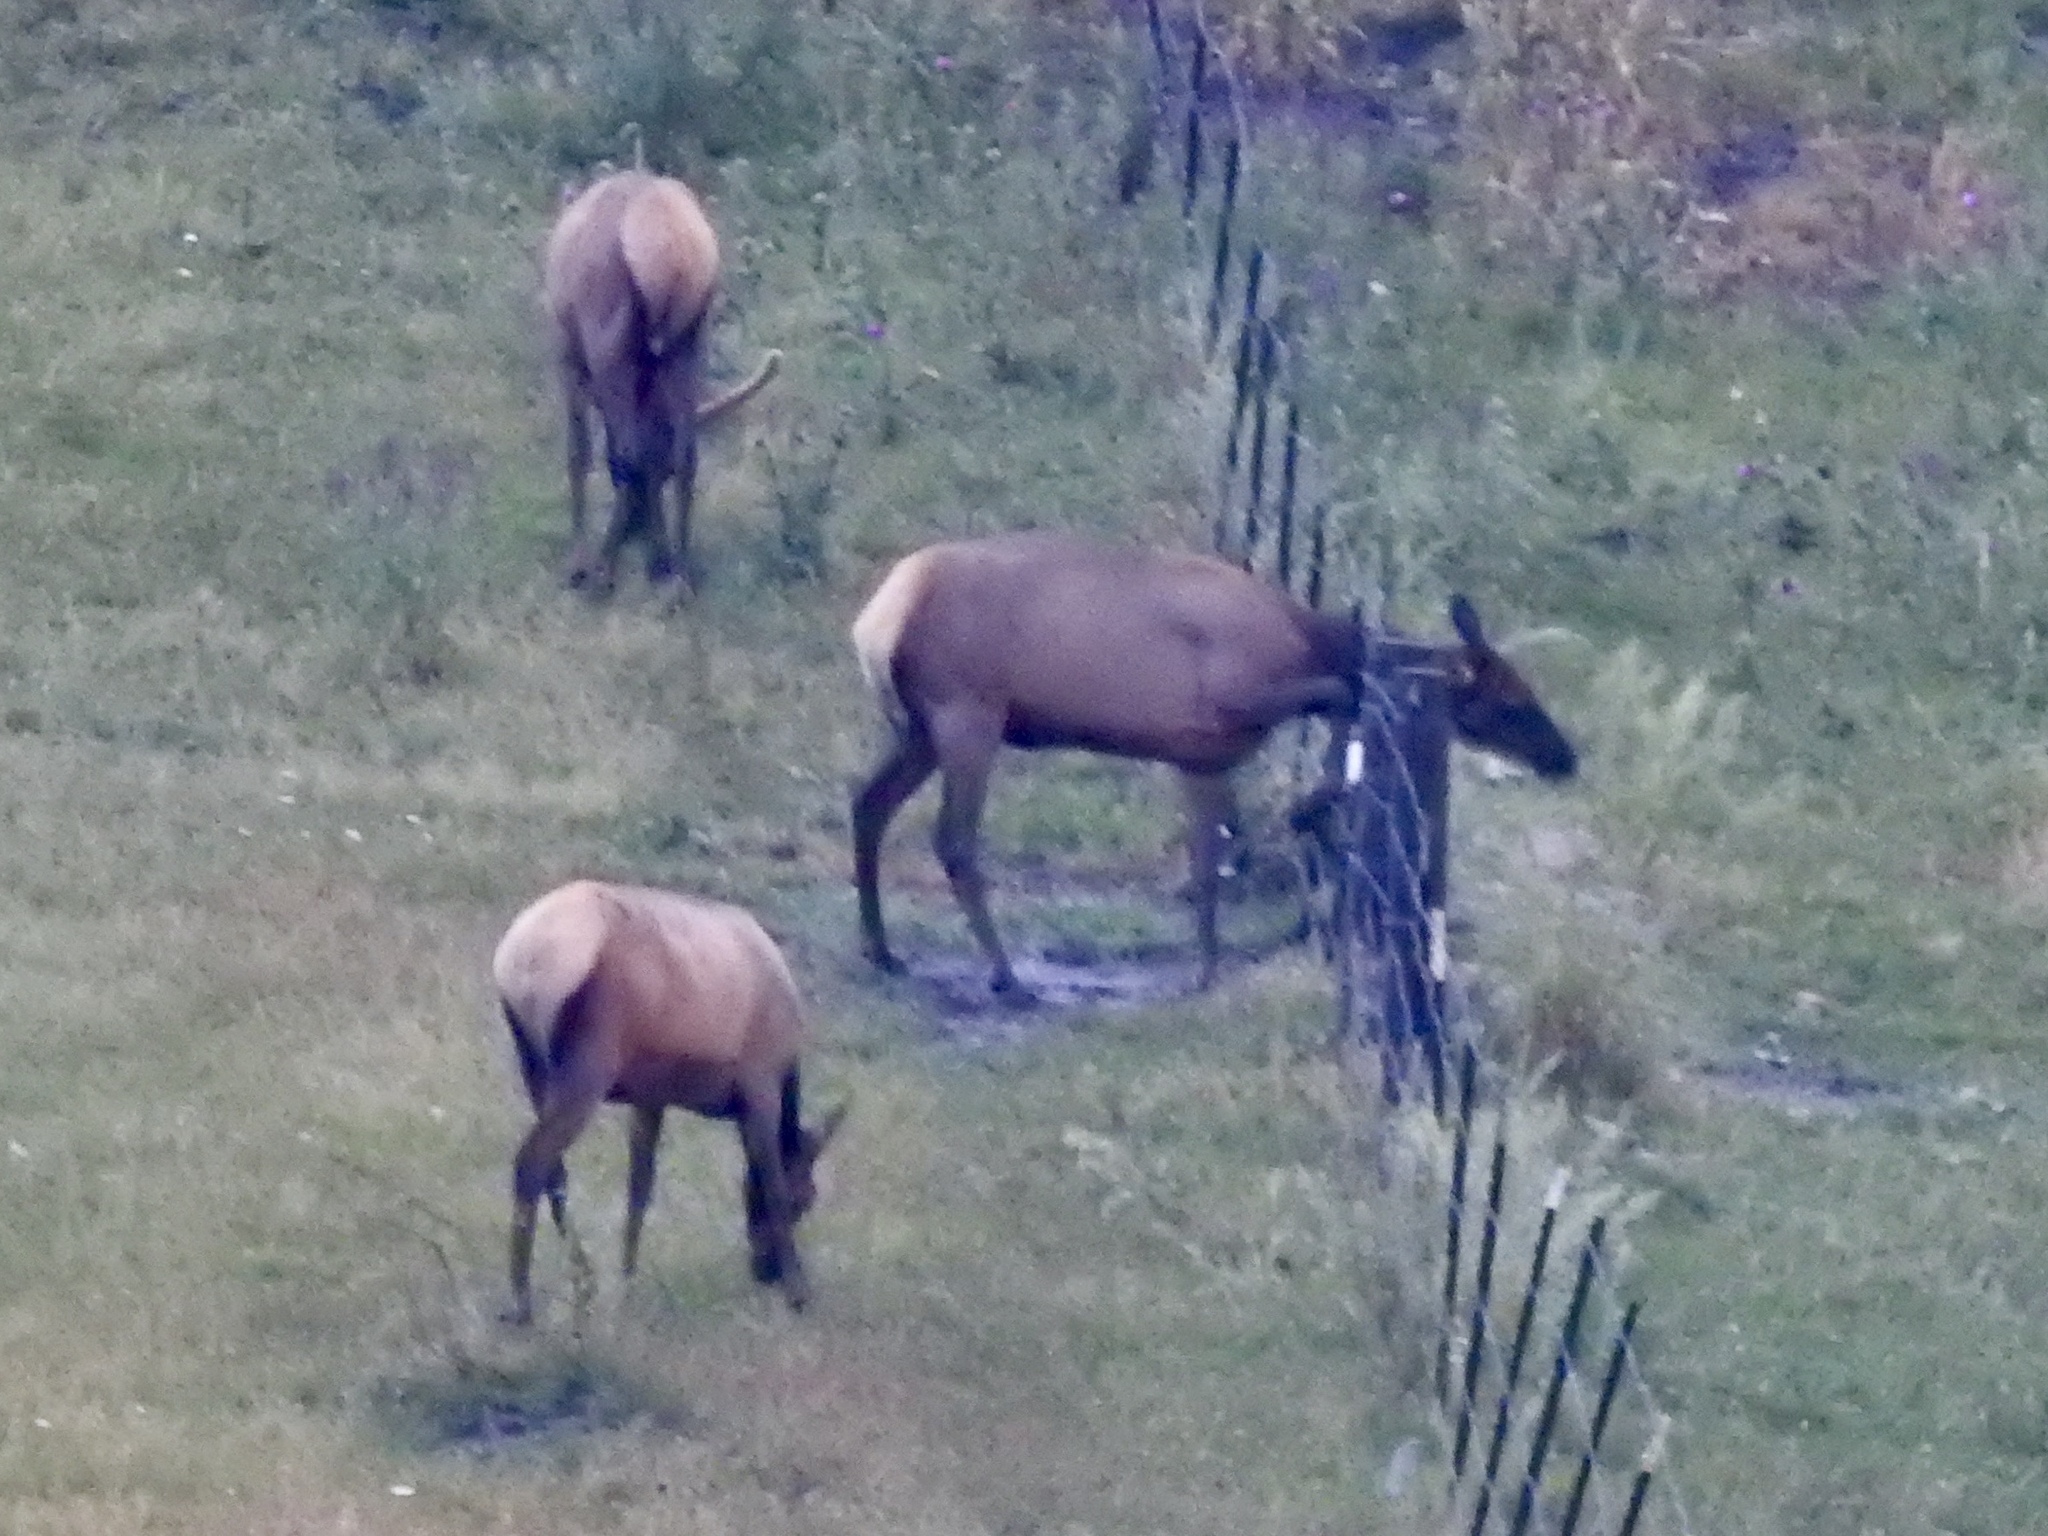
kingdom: Animalia
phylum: Chordata
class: Mammalia
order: Artiodactyla
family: Cervidae
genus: Cervus
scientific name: Cervus elaphus
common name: Red deer
